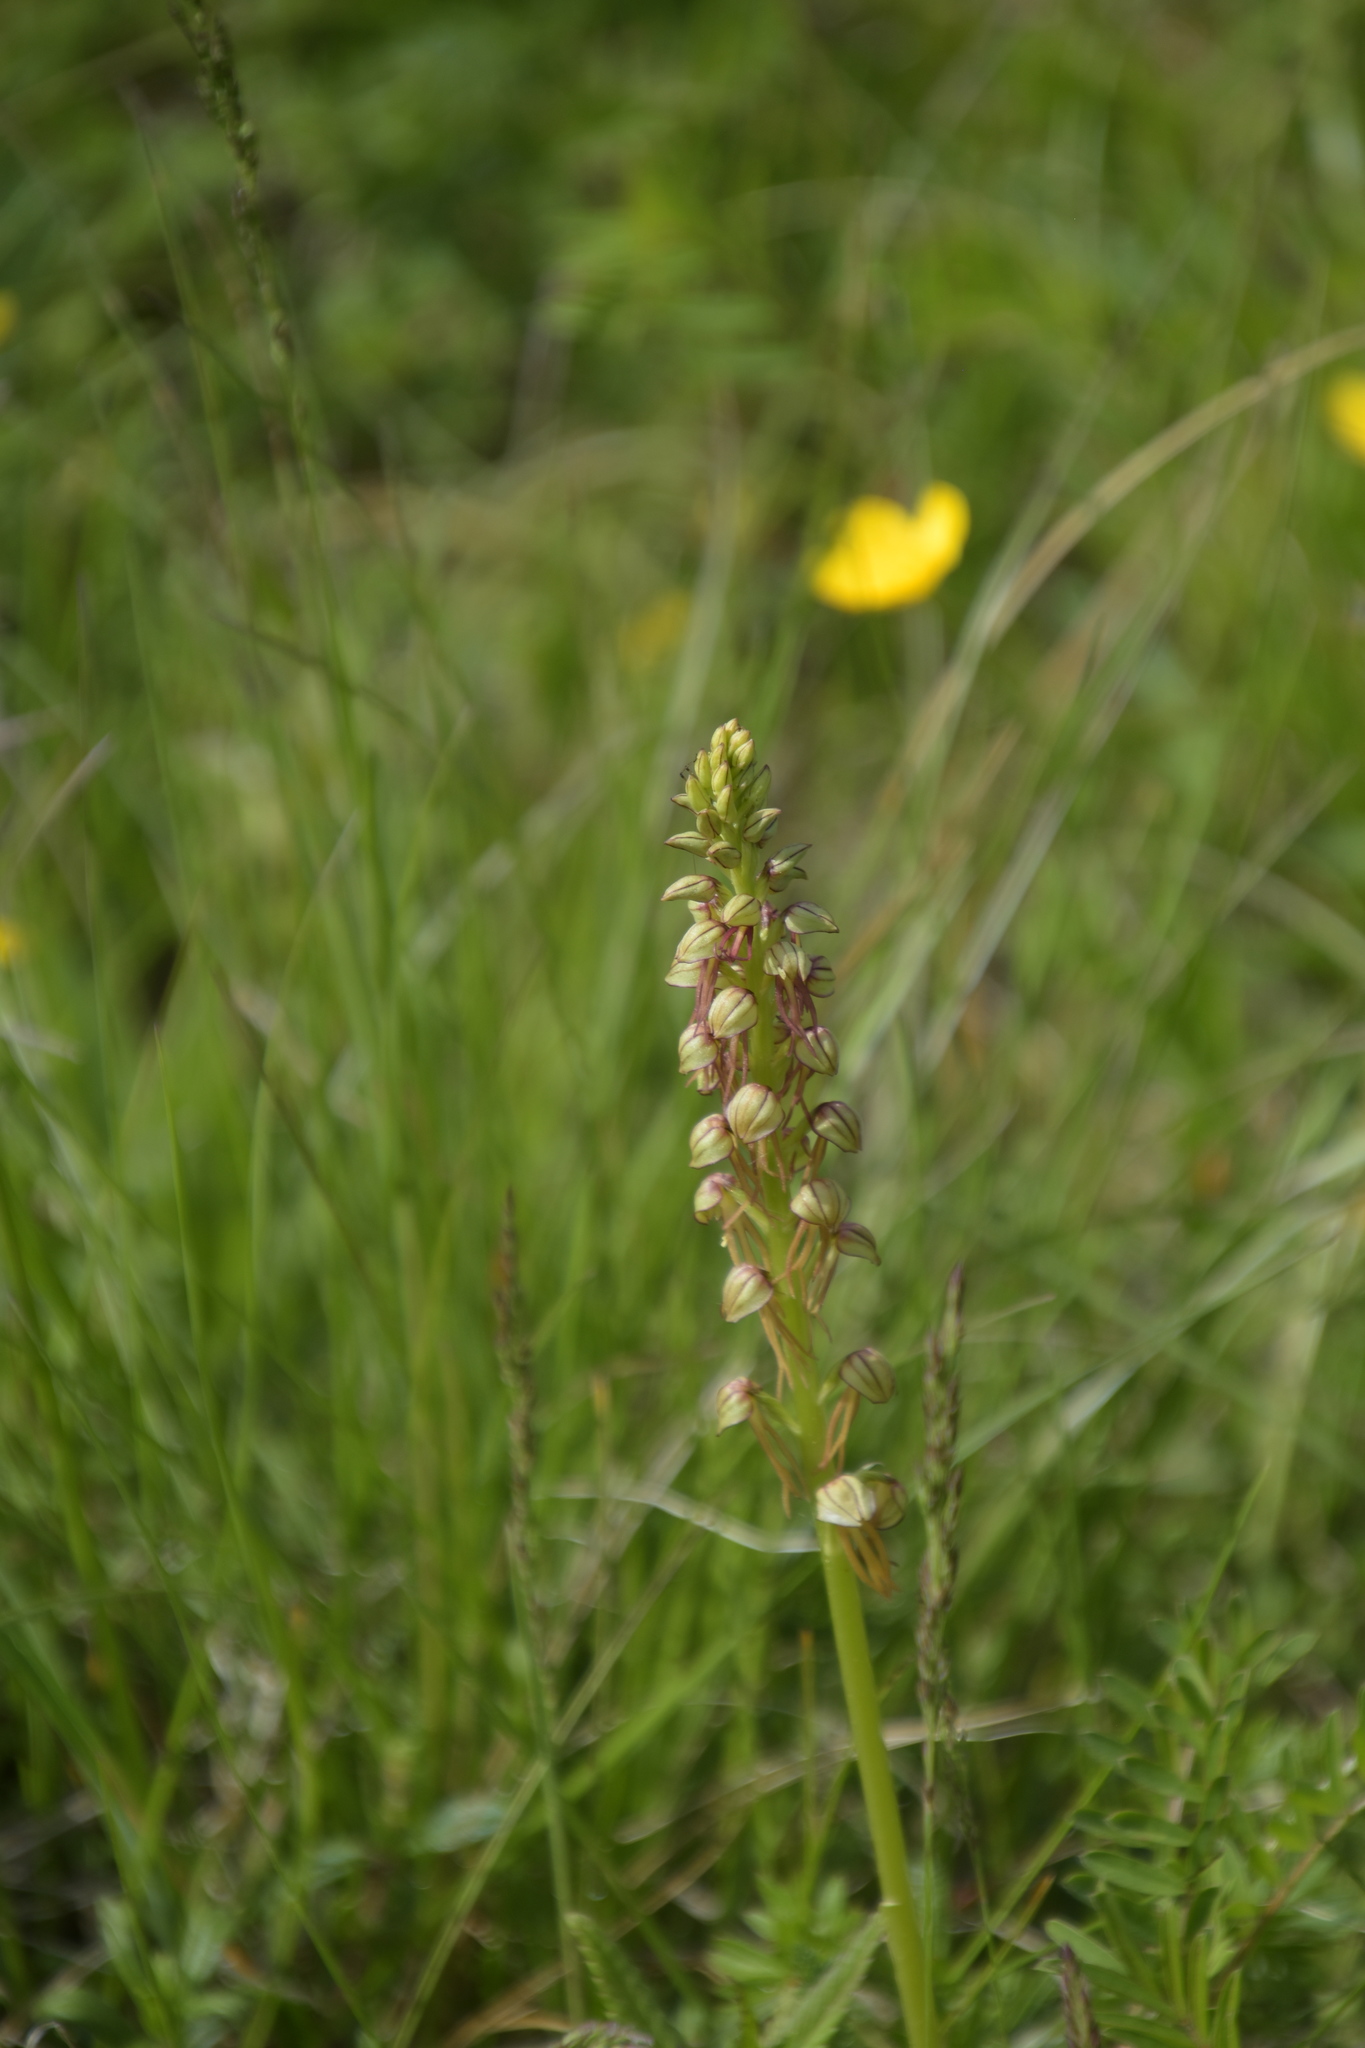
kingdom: Plantae
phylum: Tracheophyta
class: Liliopsida
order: Asparagales
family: Orchidaceae
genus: Orchis
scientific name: Orchis anthropophora
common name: Man orchid
